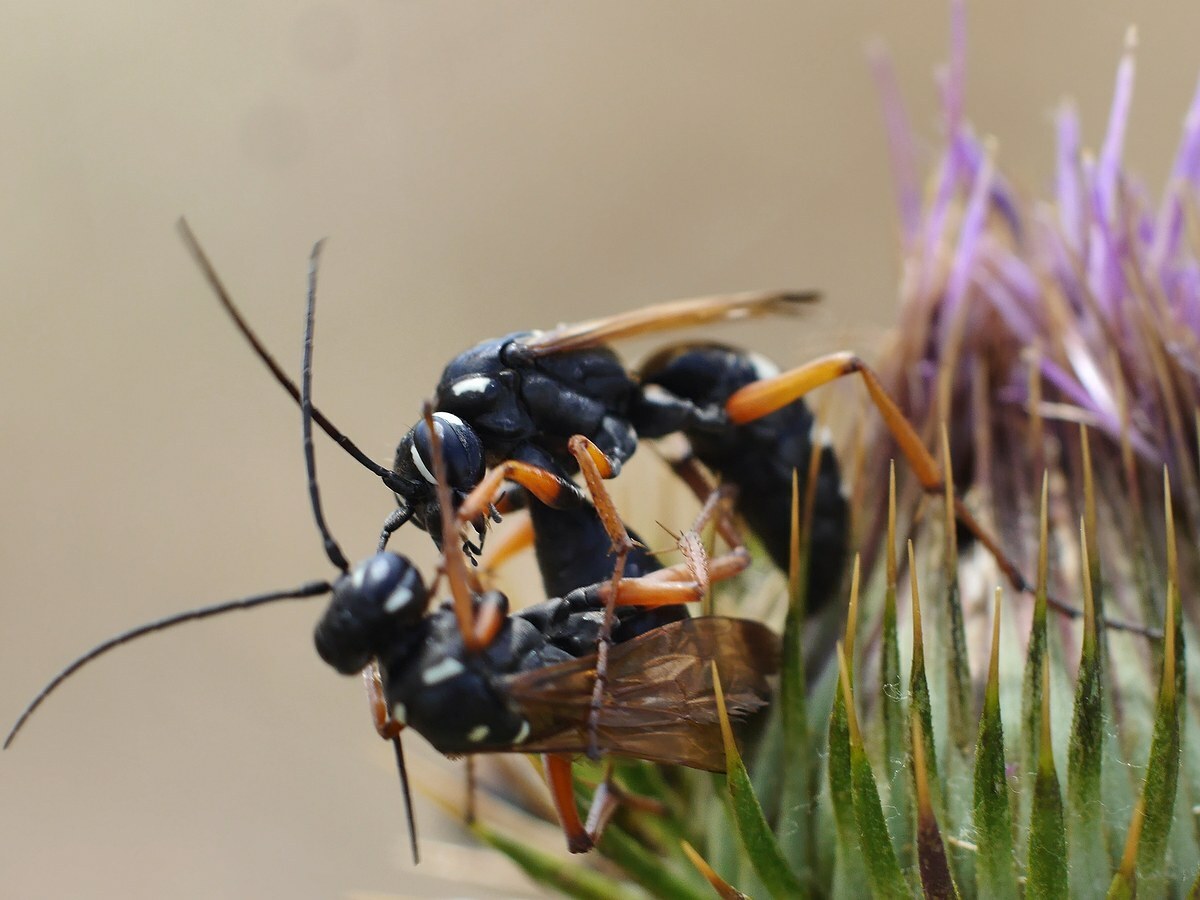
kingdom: Animalia
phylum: Arthropoda
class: Insecta
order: Hymenoptera
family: Pompilidae
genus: Cryptocheilus
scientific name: Cryptocheilus variabilis
